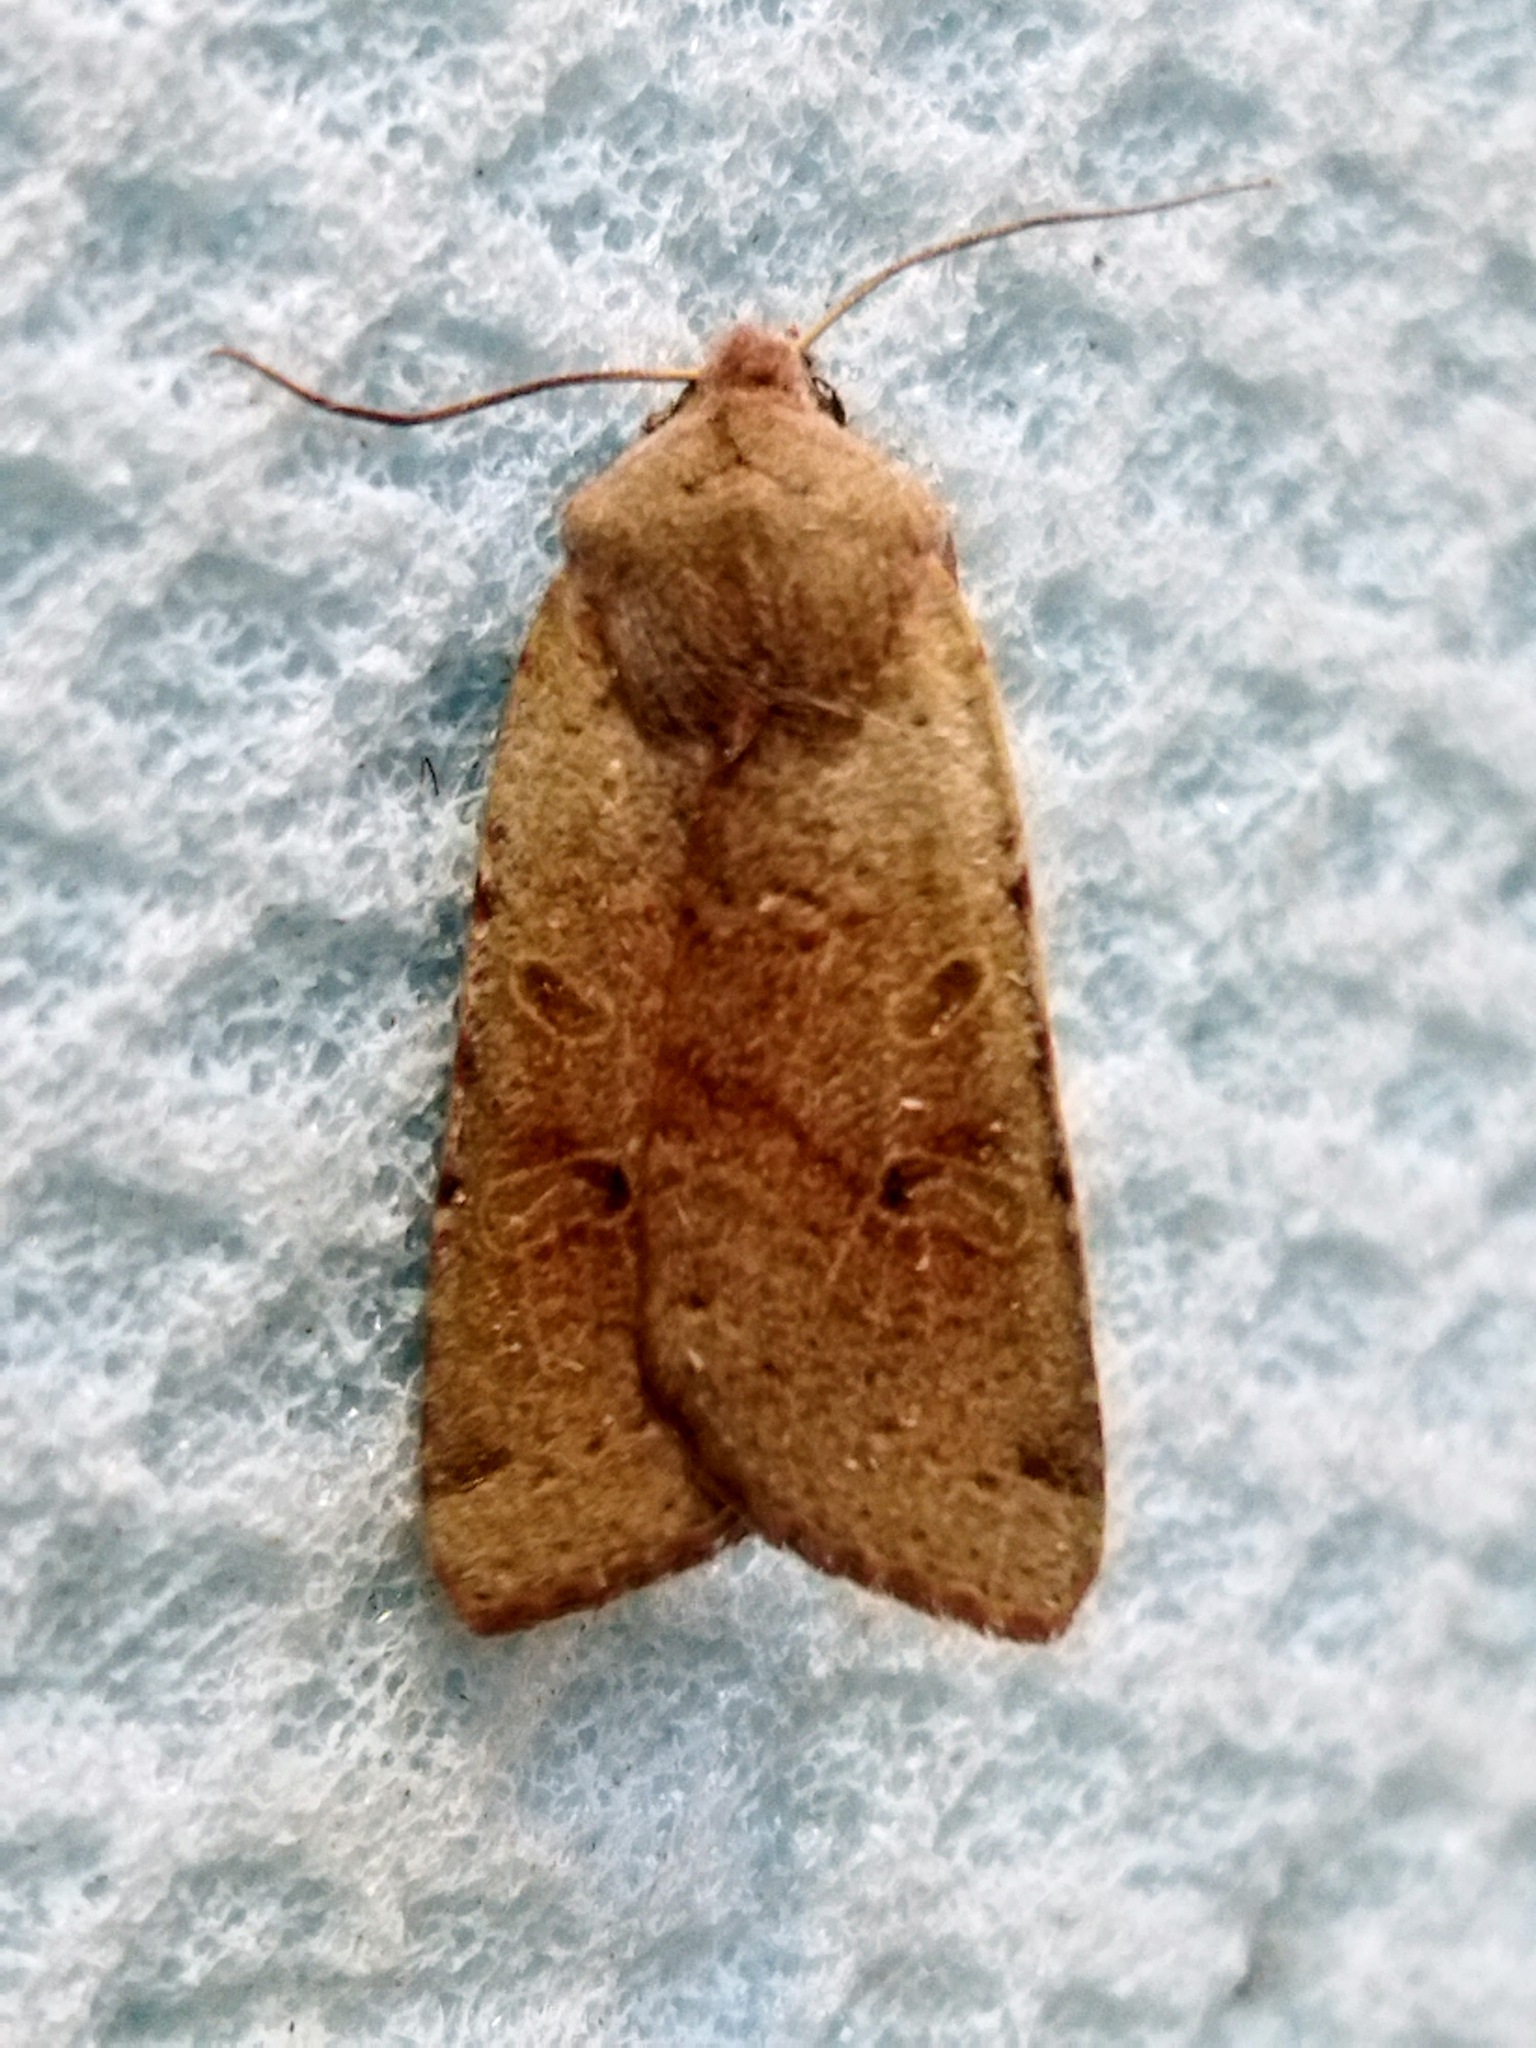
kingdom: Animalia
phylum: Arthropoda
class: Insecta
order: Lepidoptera
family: Noctuidae
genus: Agrochola
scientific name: Agrochola lychnidis
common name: Beaded chestnut
